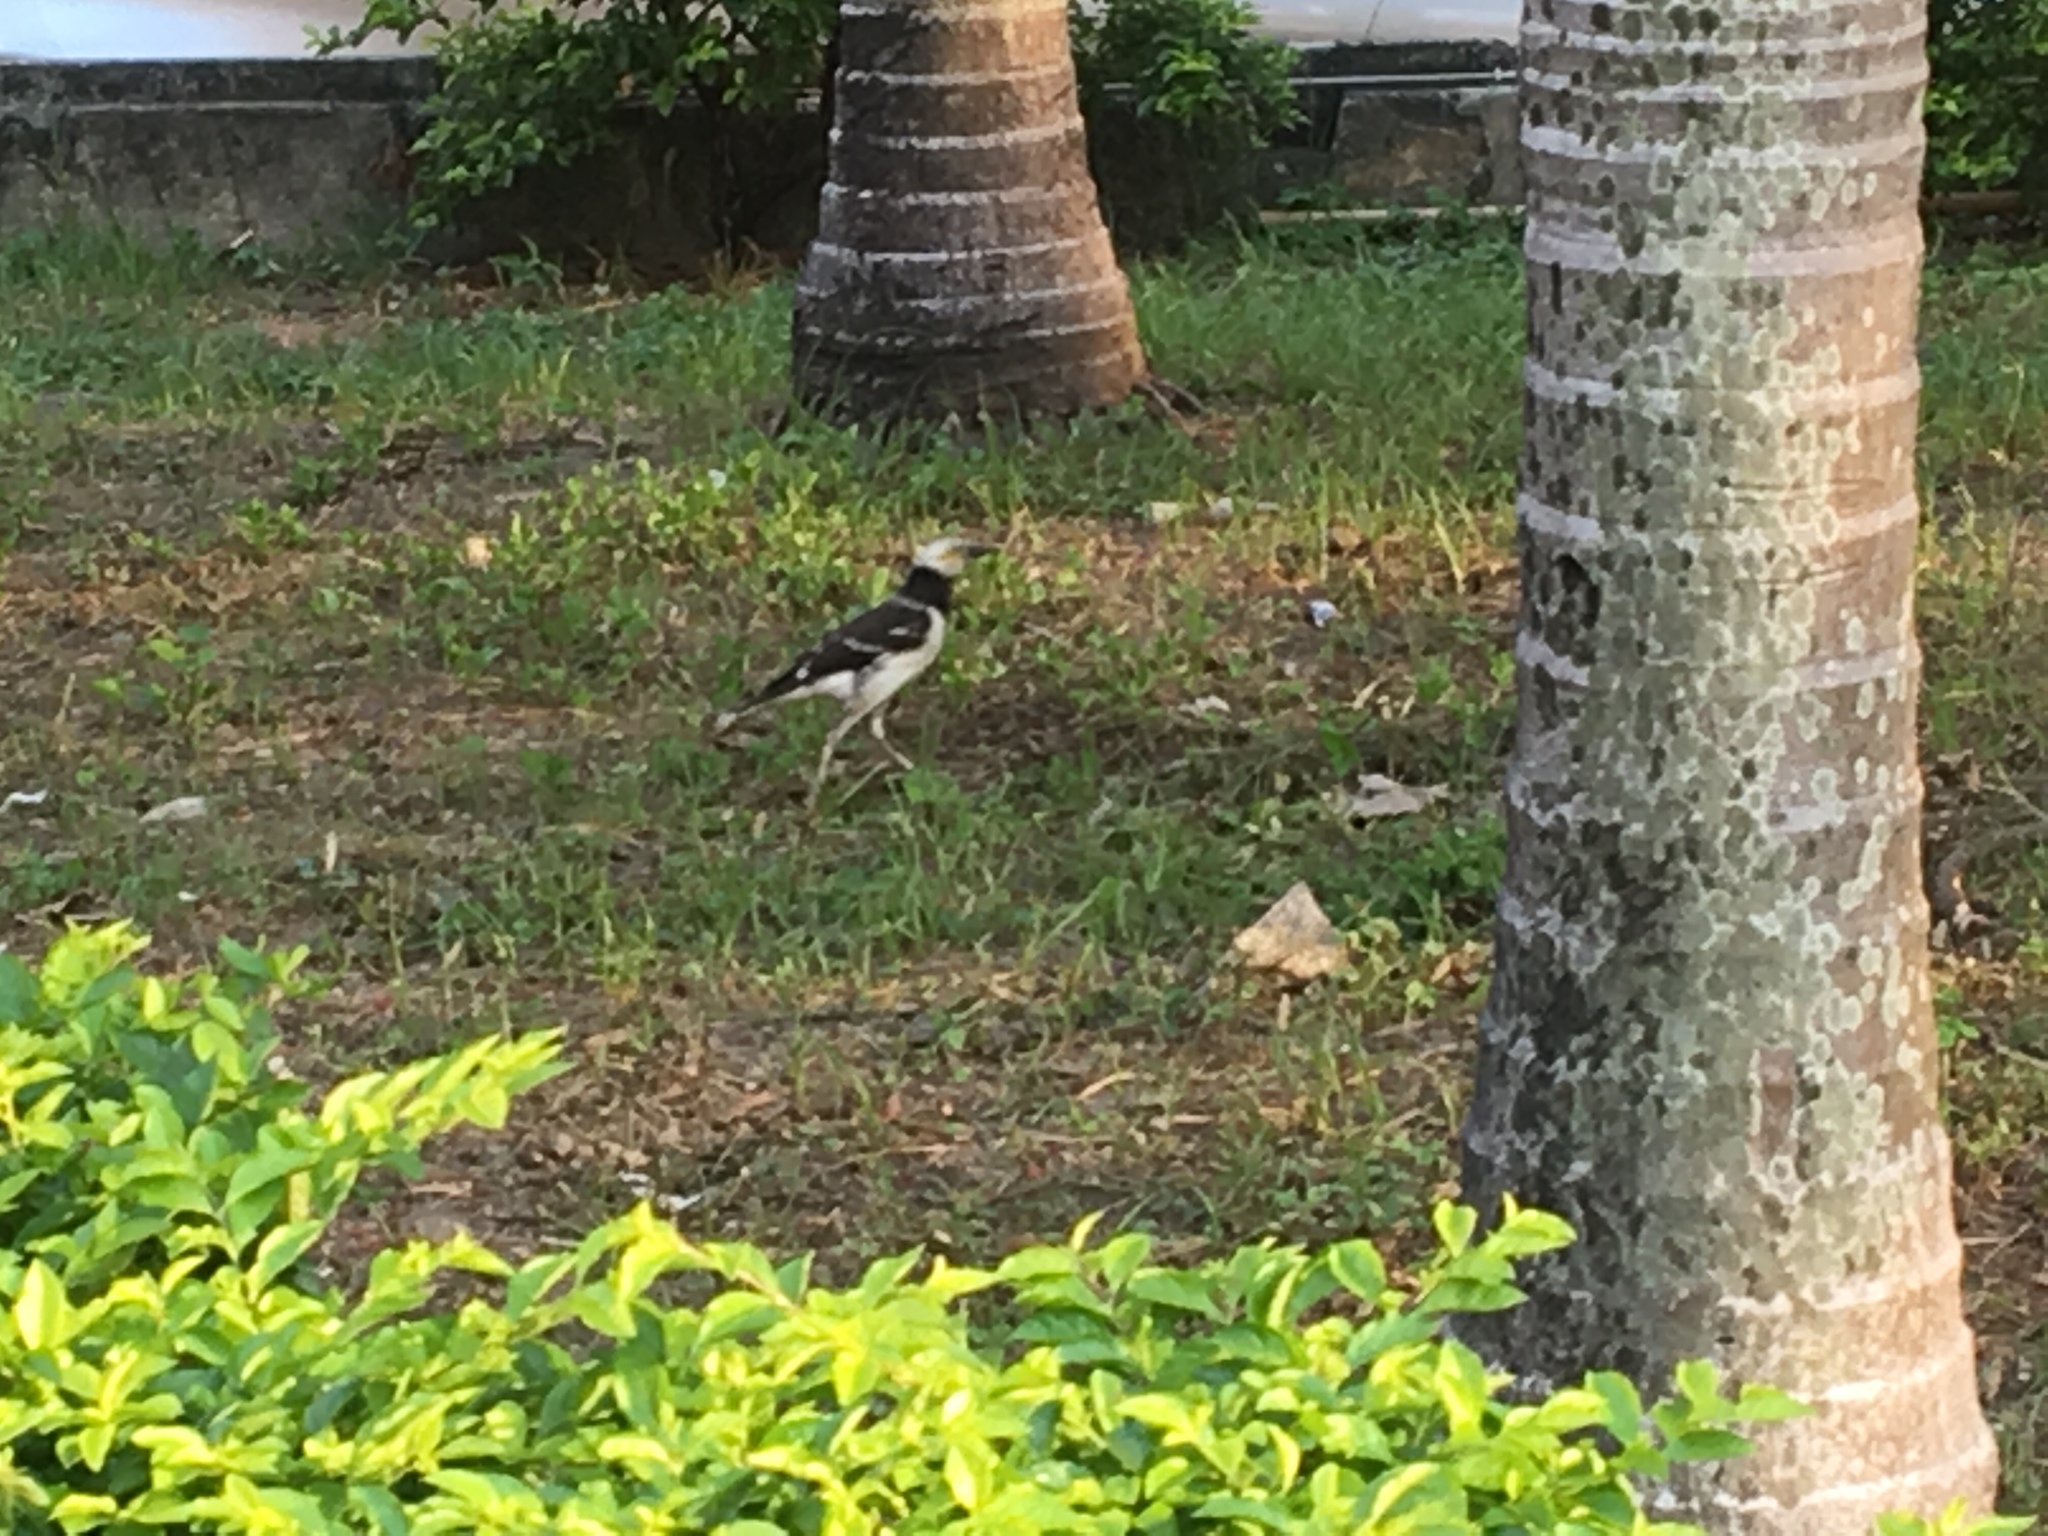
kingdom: Animalia
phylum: Chordata
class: Aves
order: Passeriformes
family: Sturnidae
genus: Gracupica
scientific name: Gracupica nigricollis
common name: Black-collared starling
